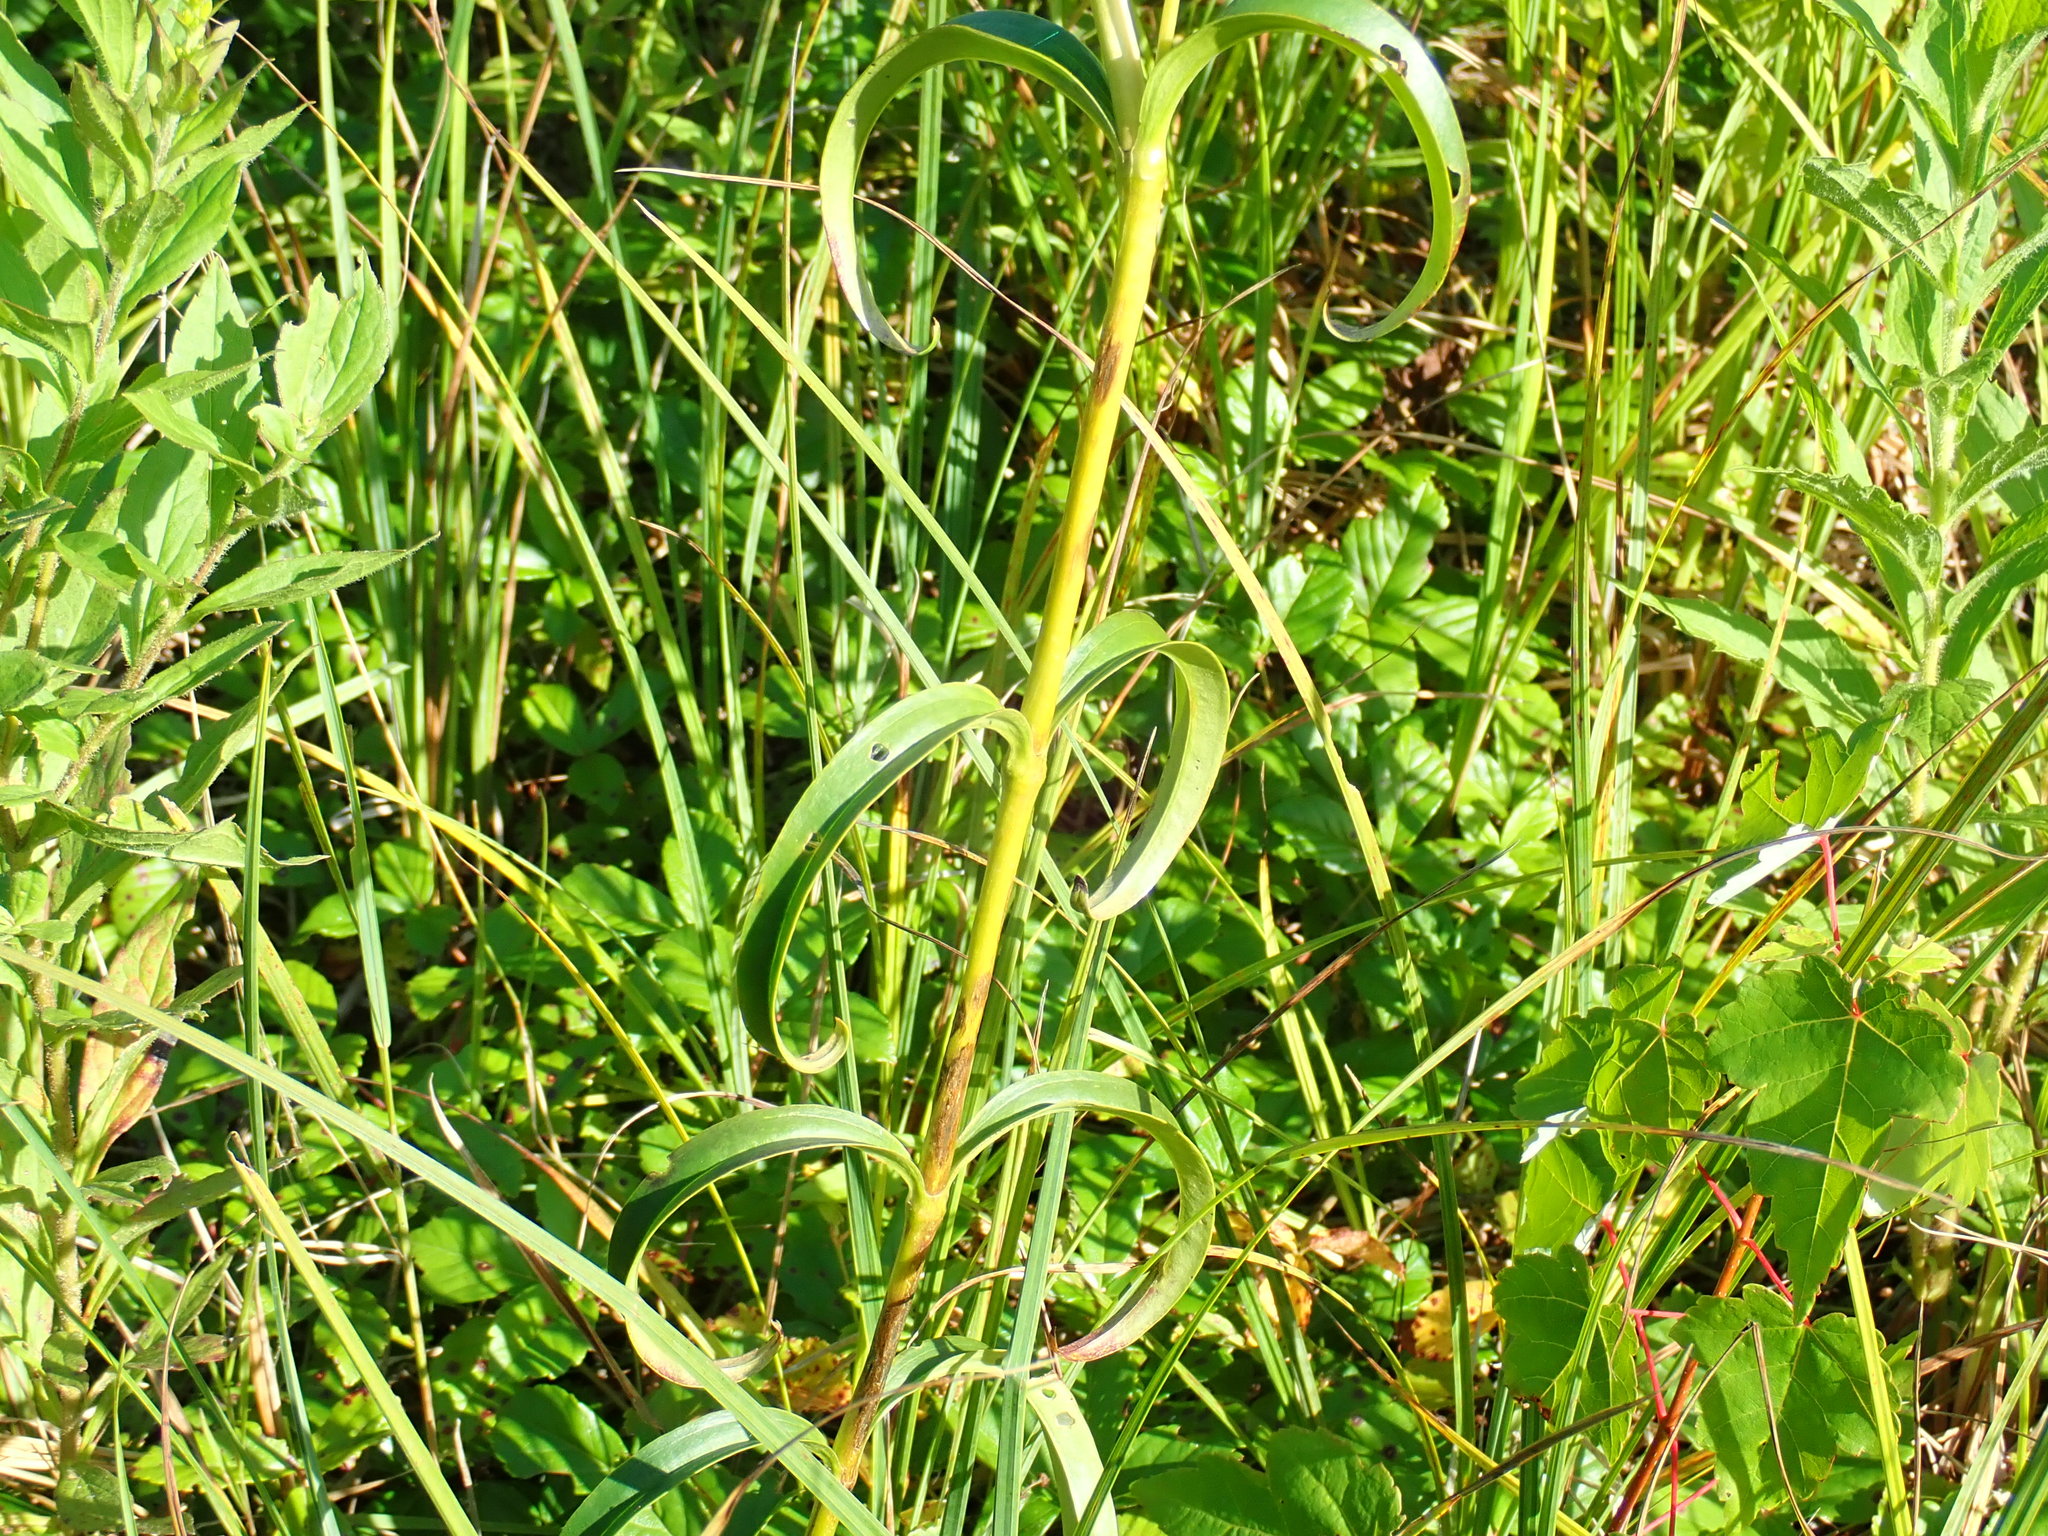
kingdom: Plantae
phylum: Tracheophyta
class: Magnoliopsida
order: Gentianales
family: Gentianaceae
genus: Gentiana
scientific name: Gentiana linearis
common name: Bastard gentian
